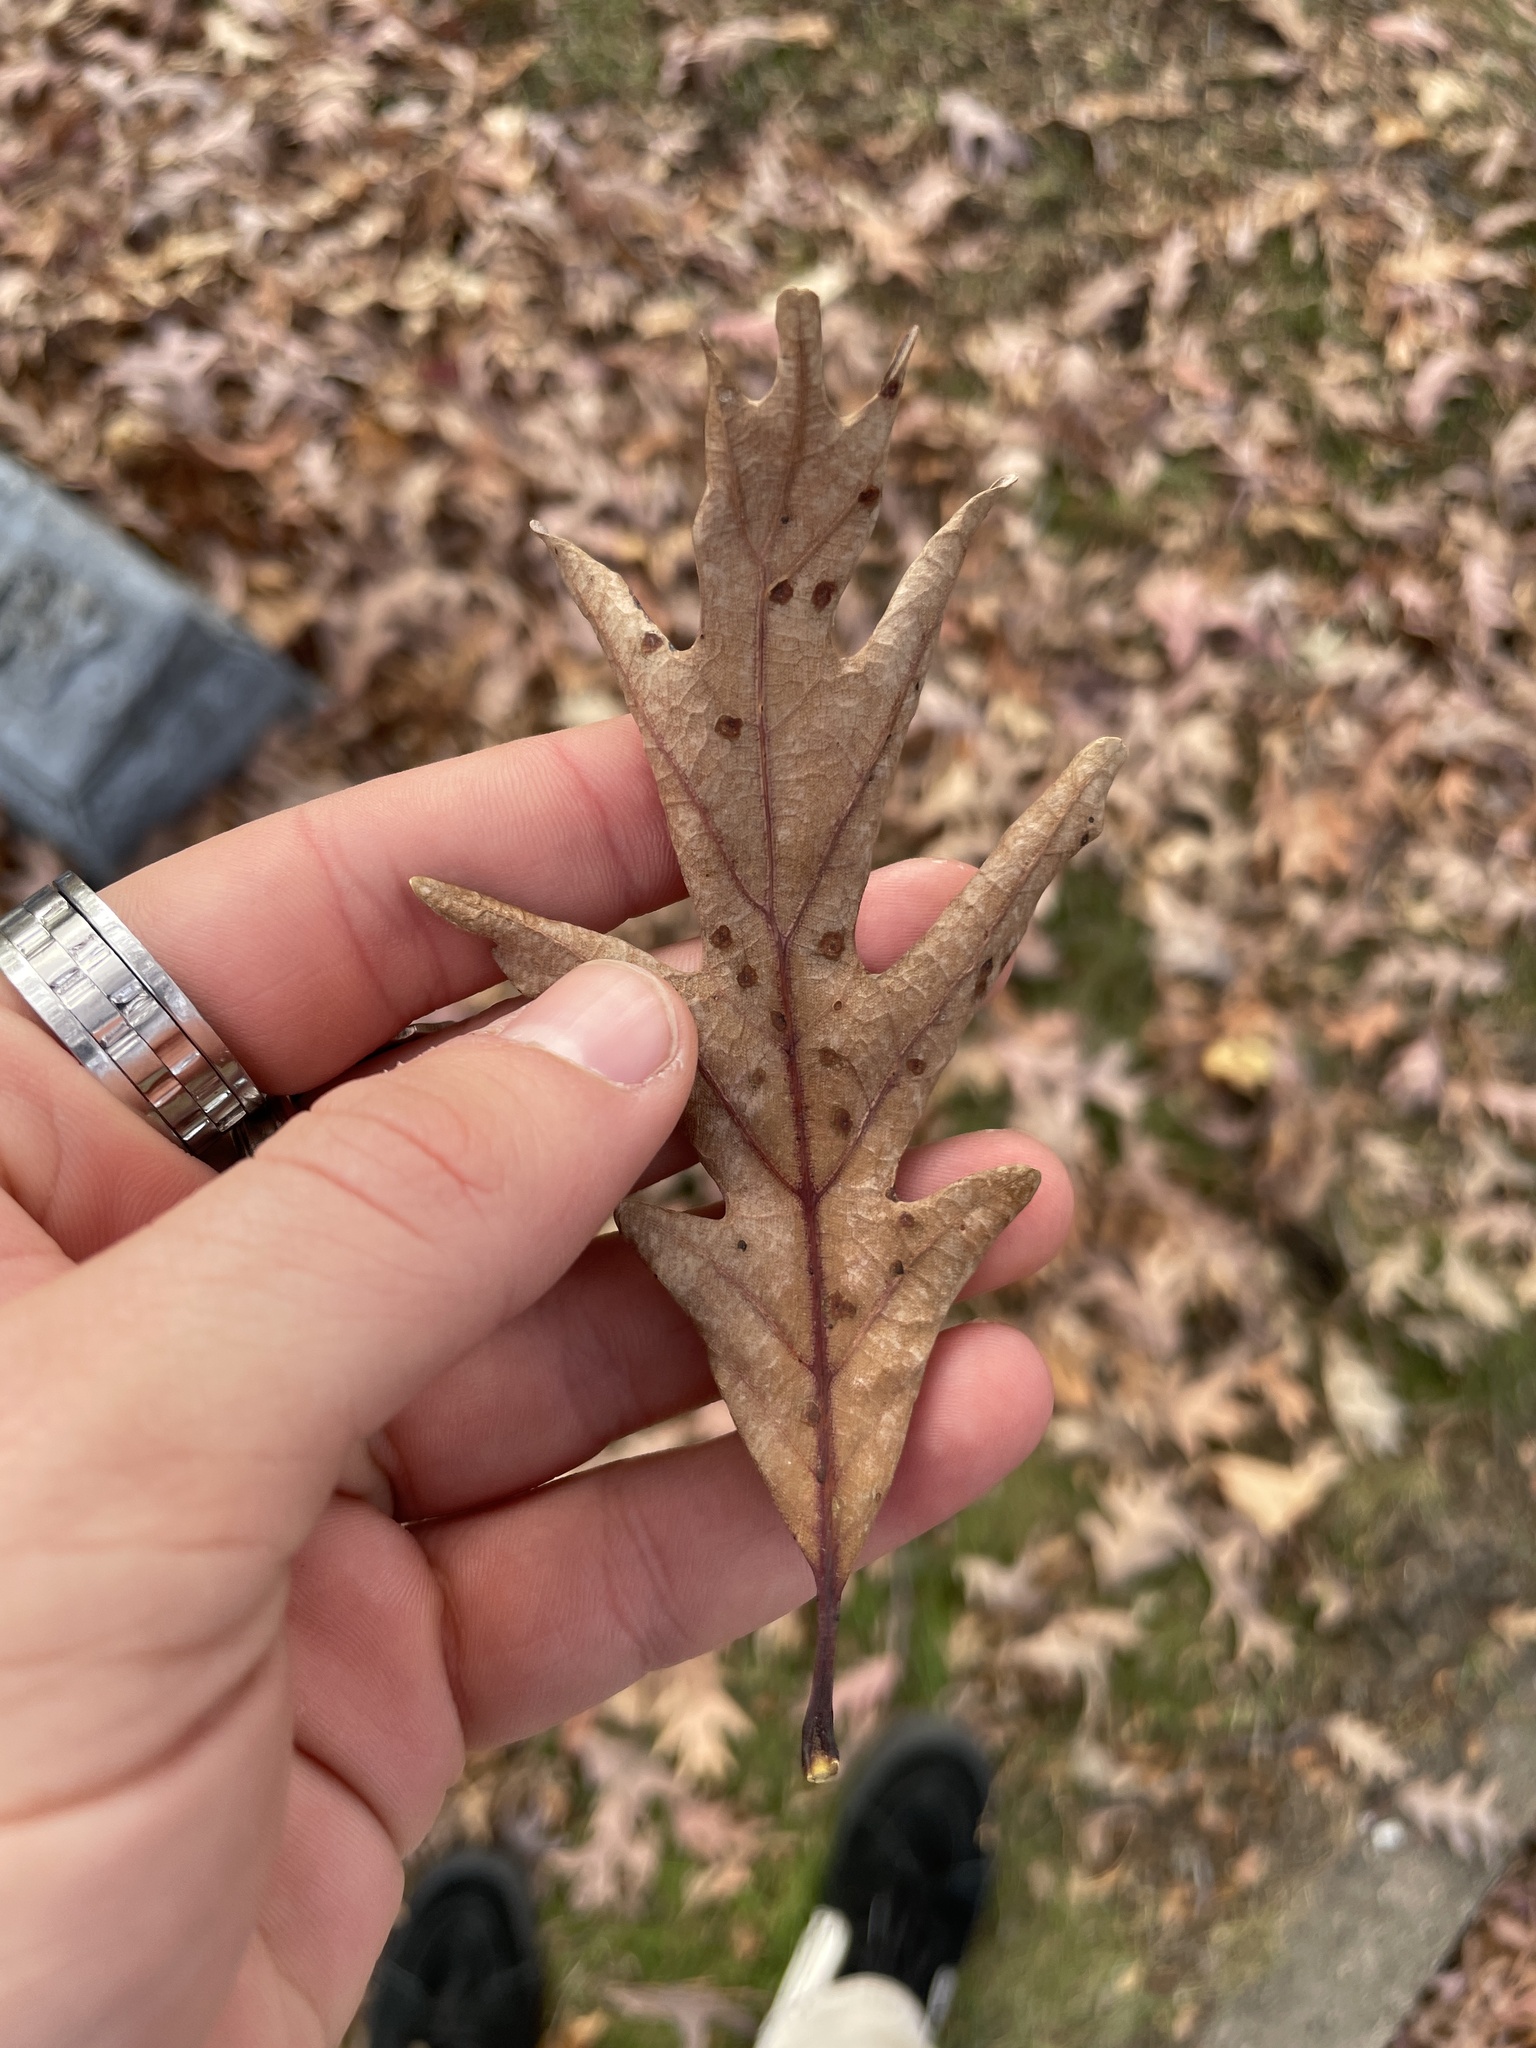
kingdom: Plantae
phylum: Tracheophyta
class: Magnoliopsida
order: Fagales
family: Fagaceae
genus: Quercus
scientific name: Quercus alba
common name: White oak
